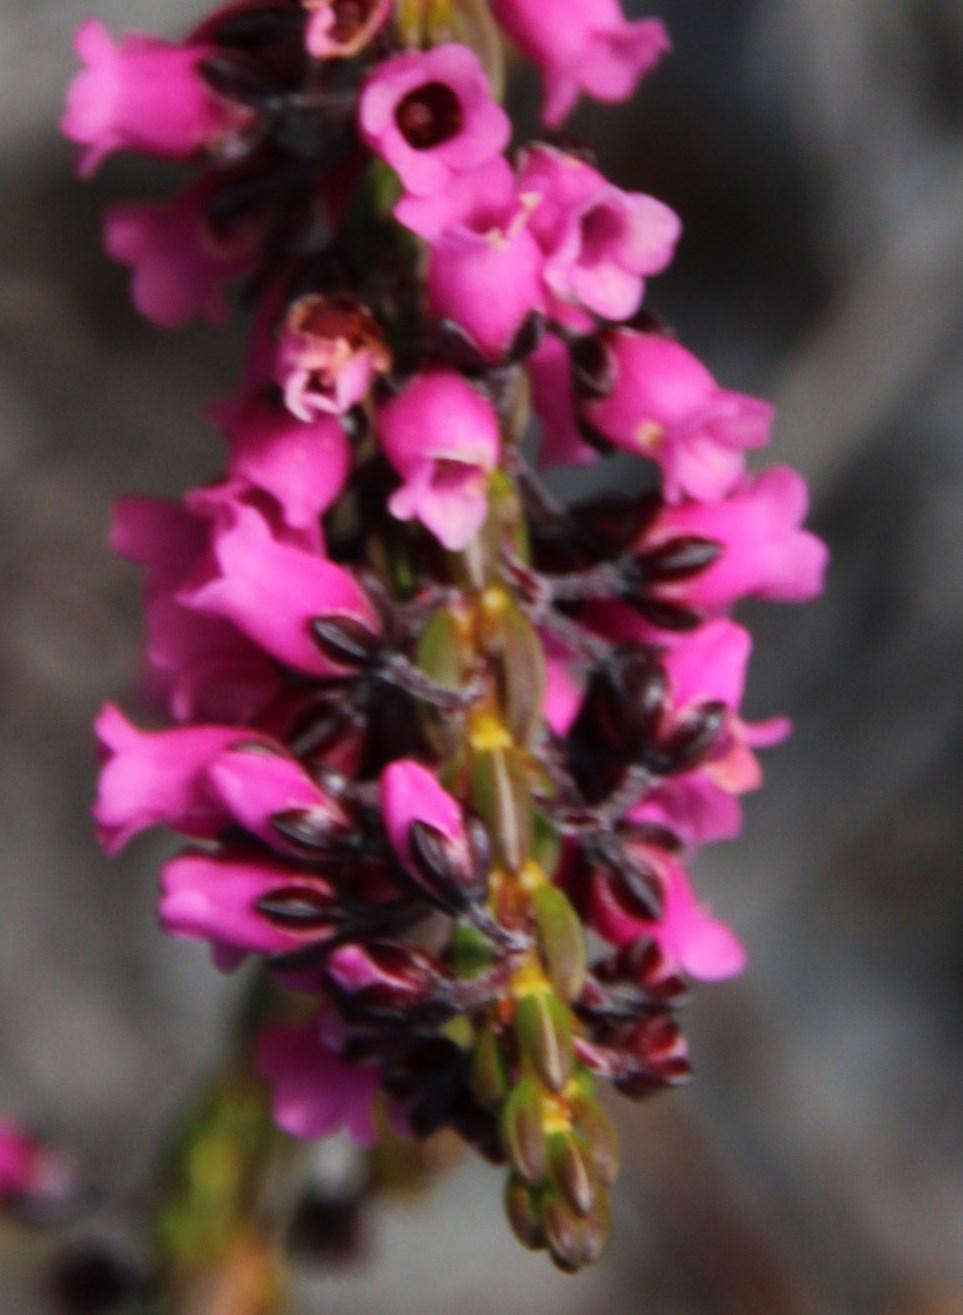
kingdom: Plantae
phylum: Tracheophyta
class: Magnoliopsida
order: Ericales
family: Ericaceae
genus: Erica
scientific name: Erica pulchella
